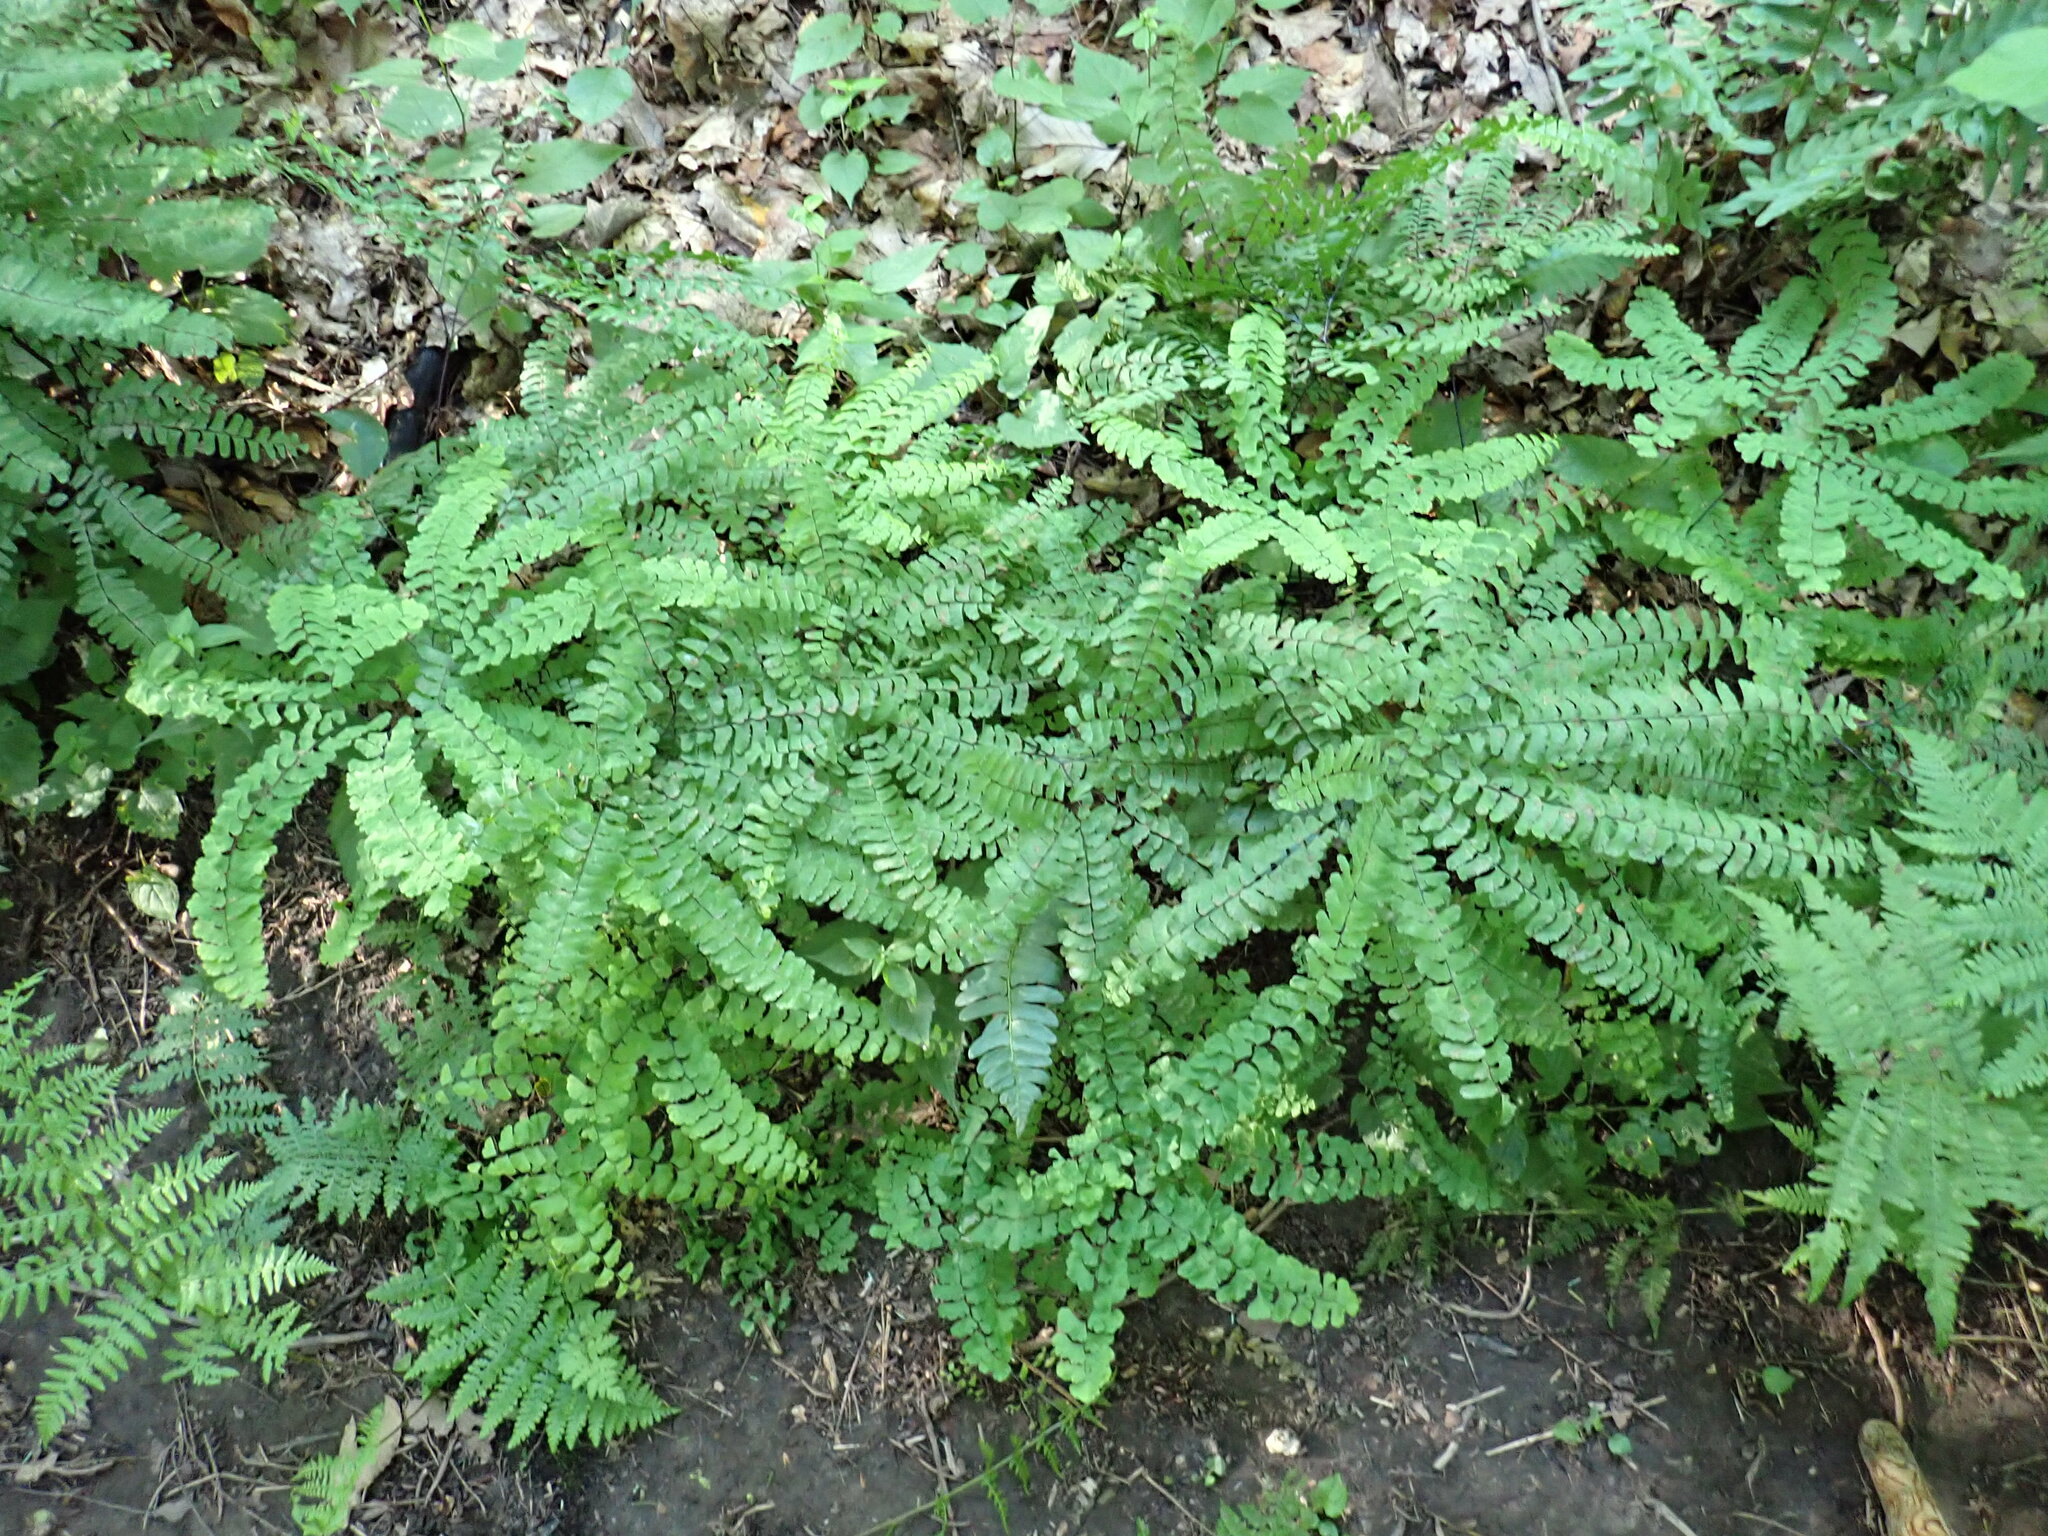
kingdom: Plantae
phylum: Tracheophyta
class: Polypodiopsida
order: Polypodiales
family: Pteridaceae
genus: Adiantum
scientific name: Adiantum pedatum
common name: Five-finger fern
